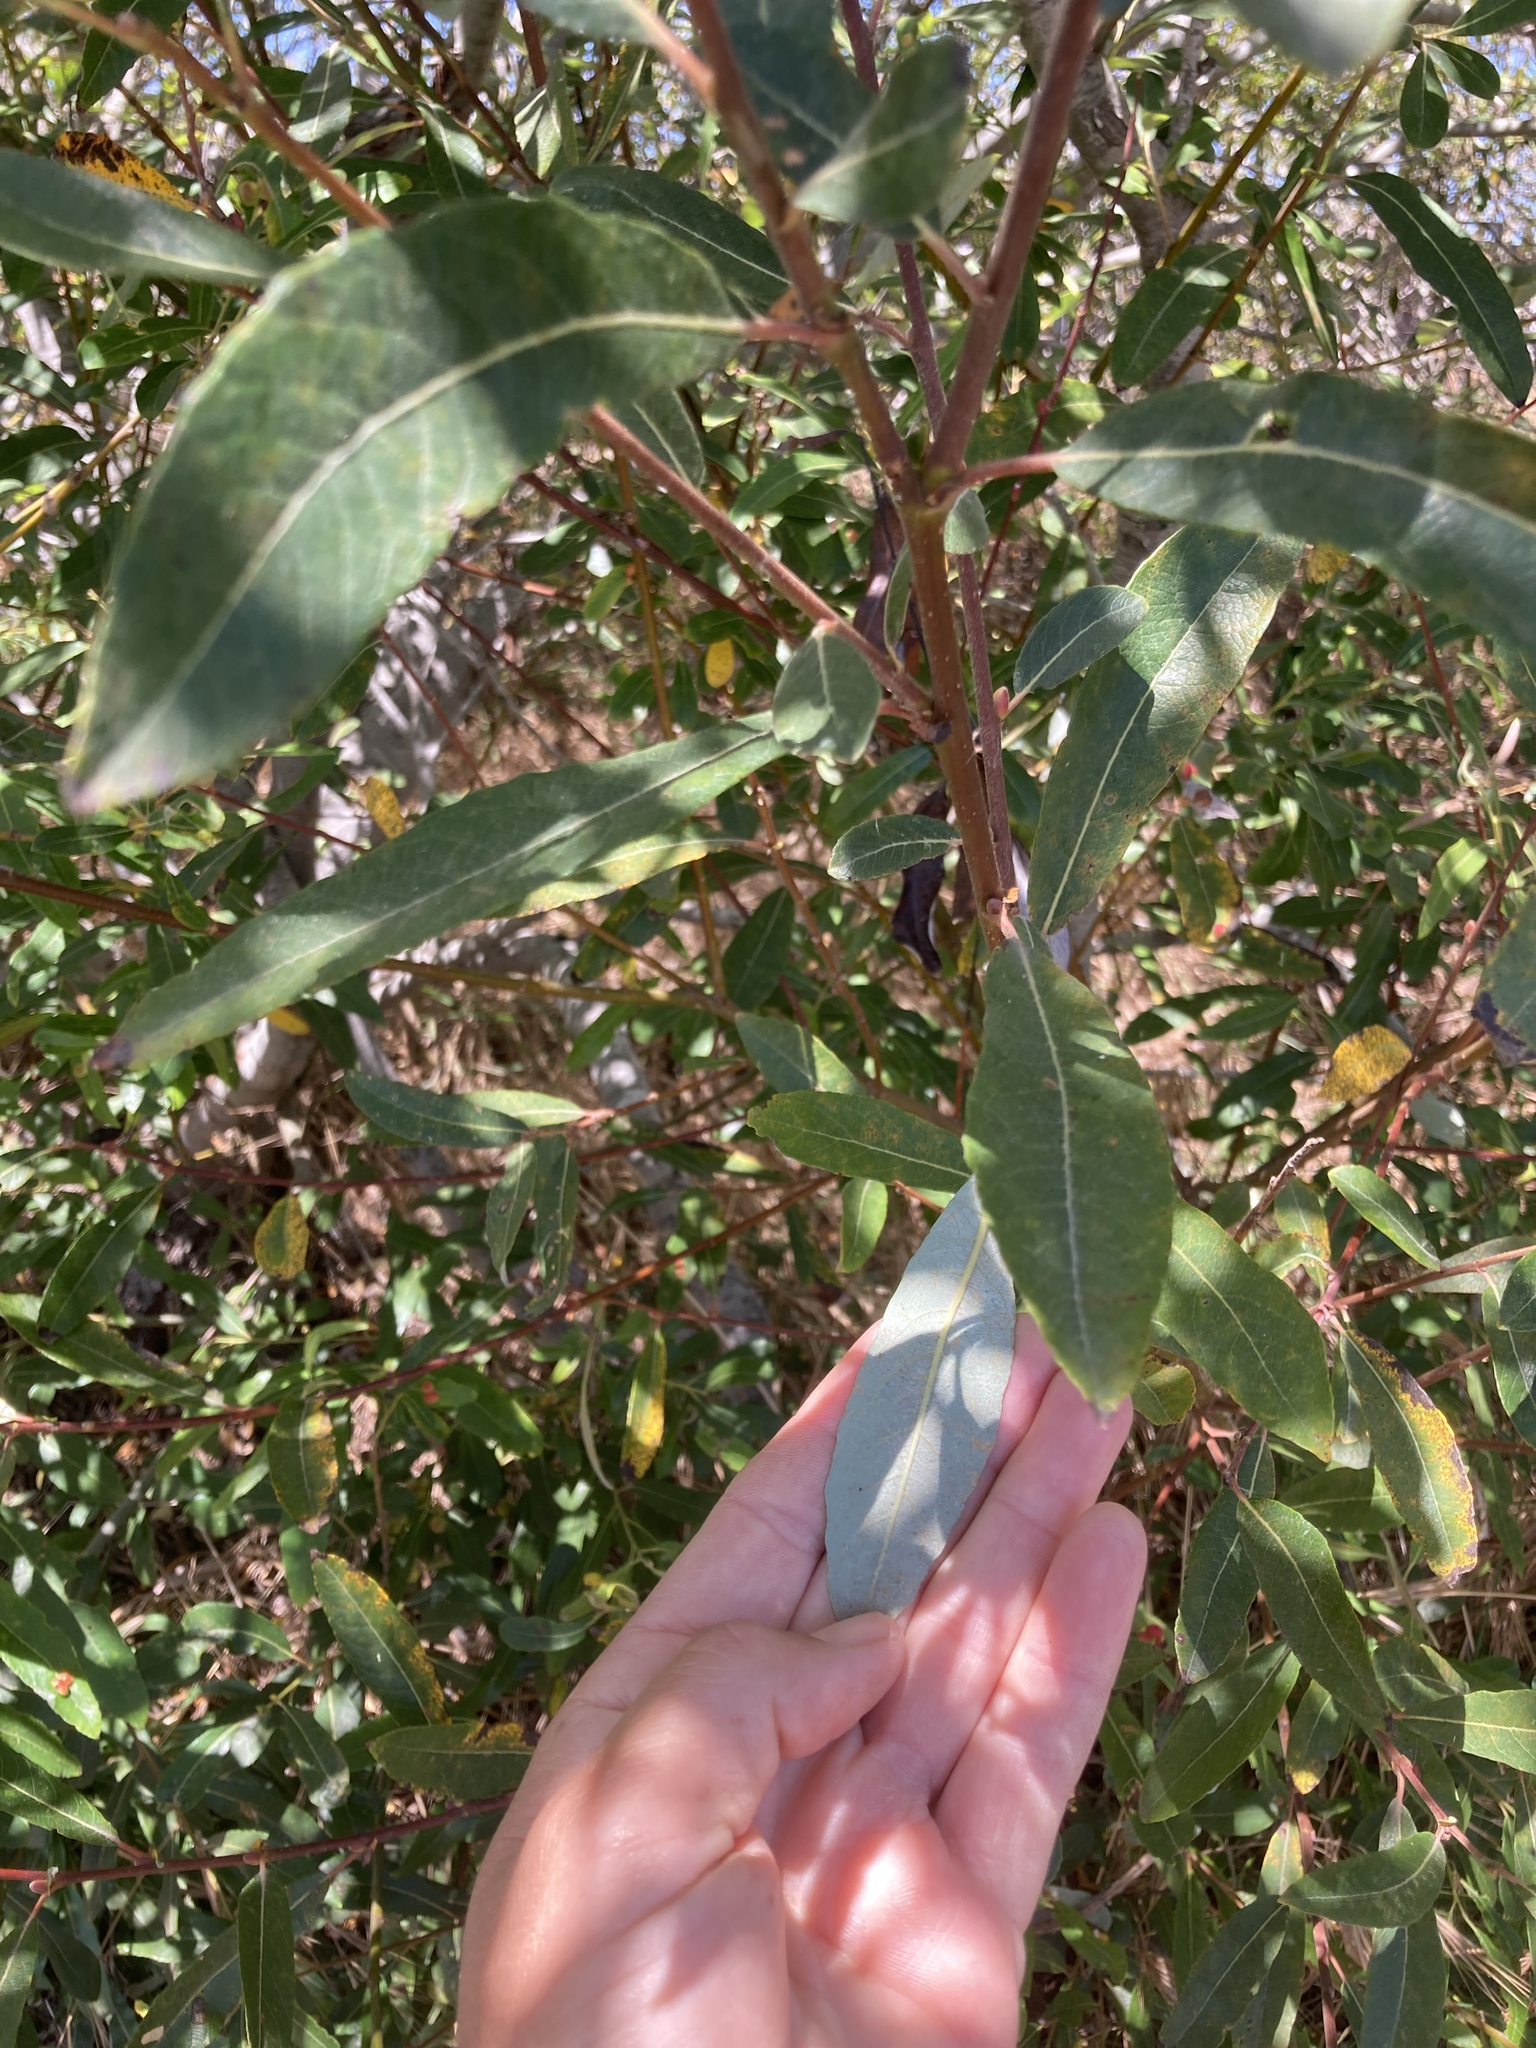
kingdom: Plantae
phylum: Tracheophyta
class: Magnoliopsida
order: Malpighiales
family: Salicaceae
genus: Salix
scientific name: Salix lasiolepis
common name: Arroyo willow
